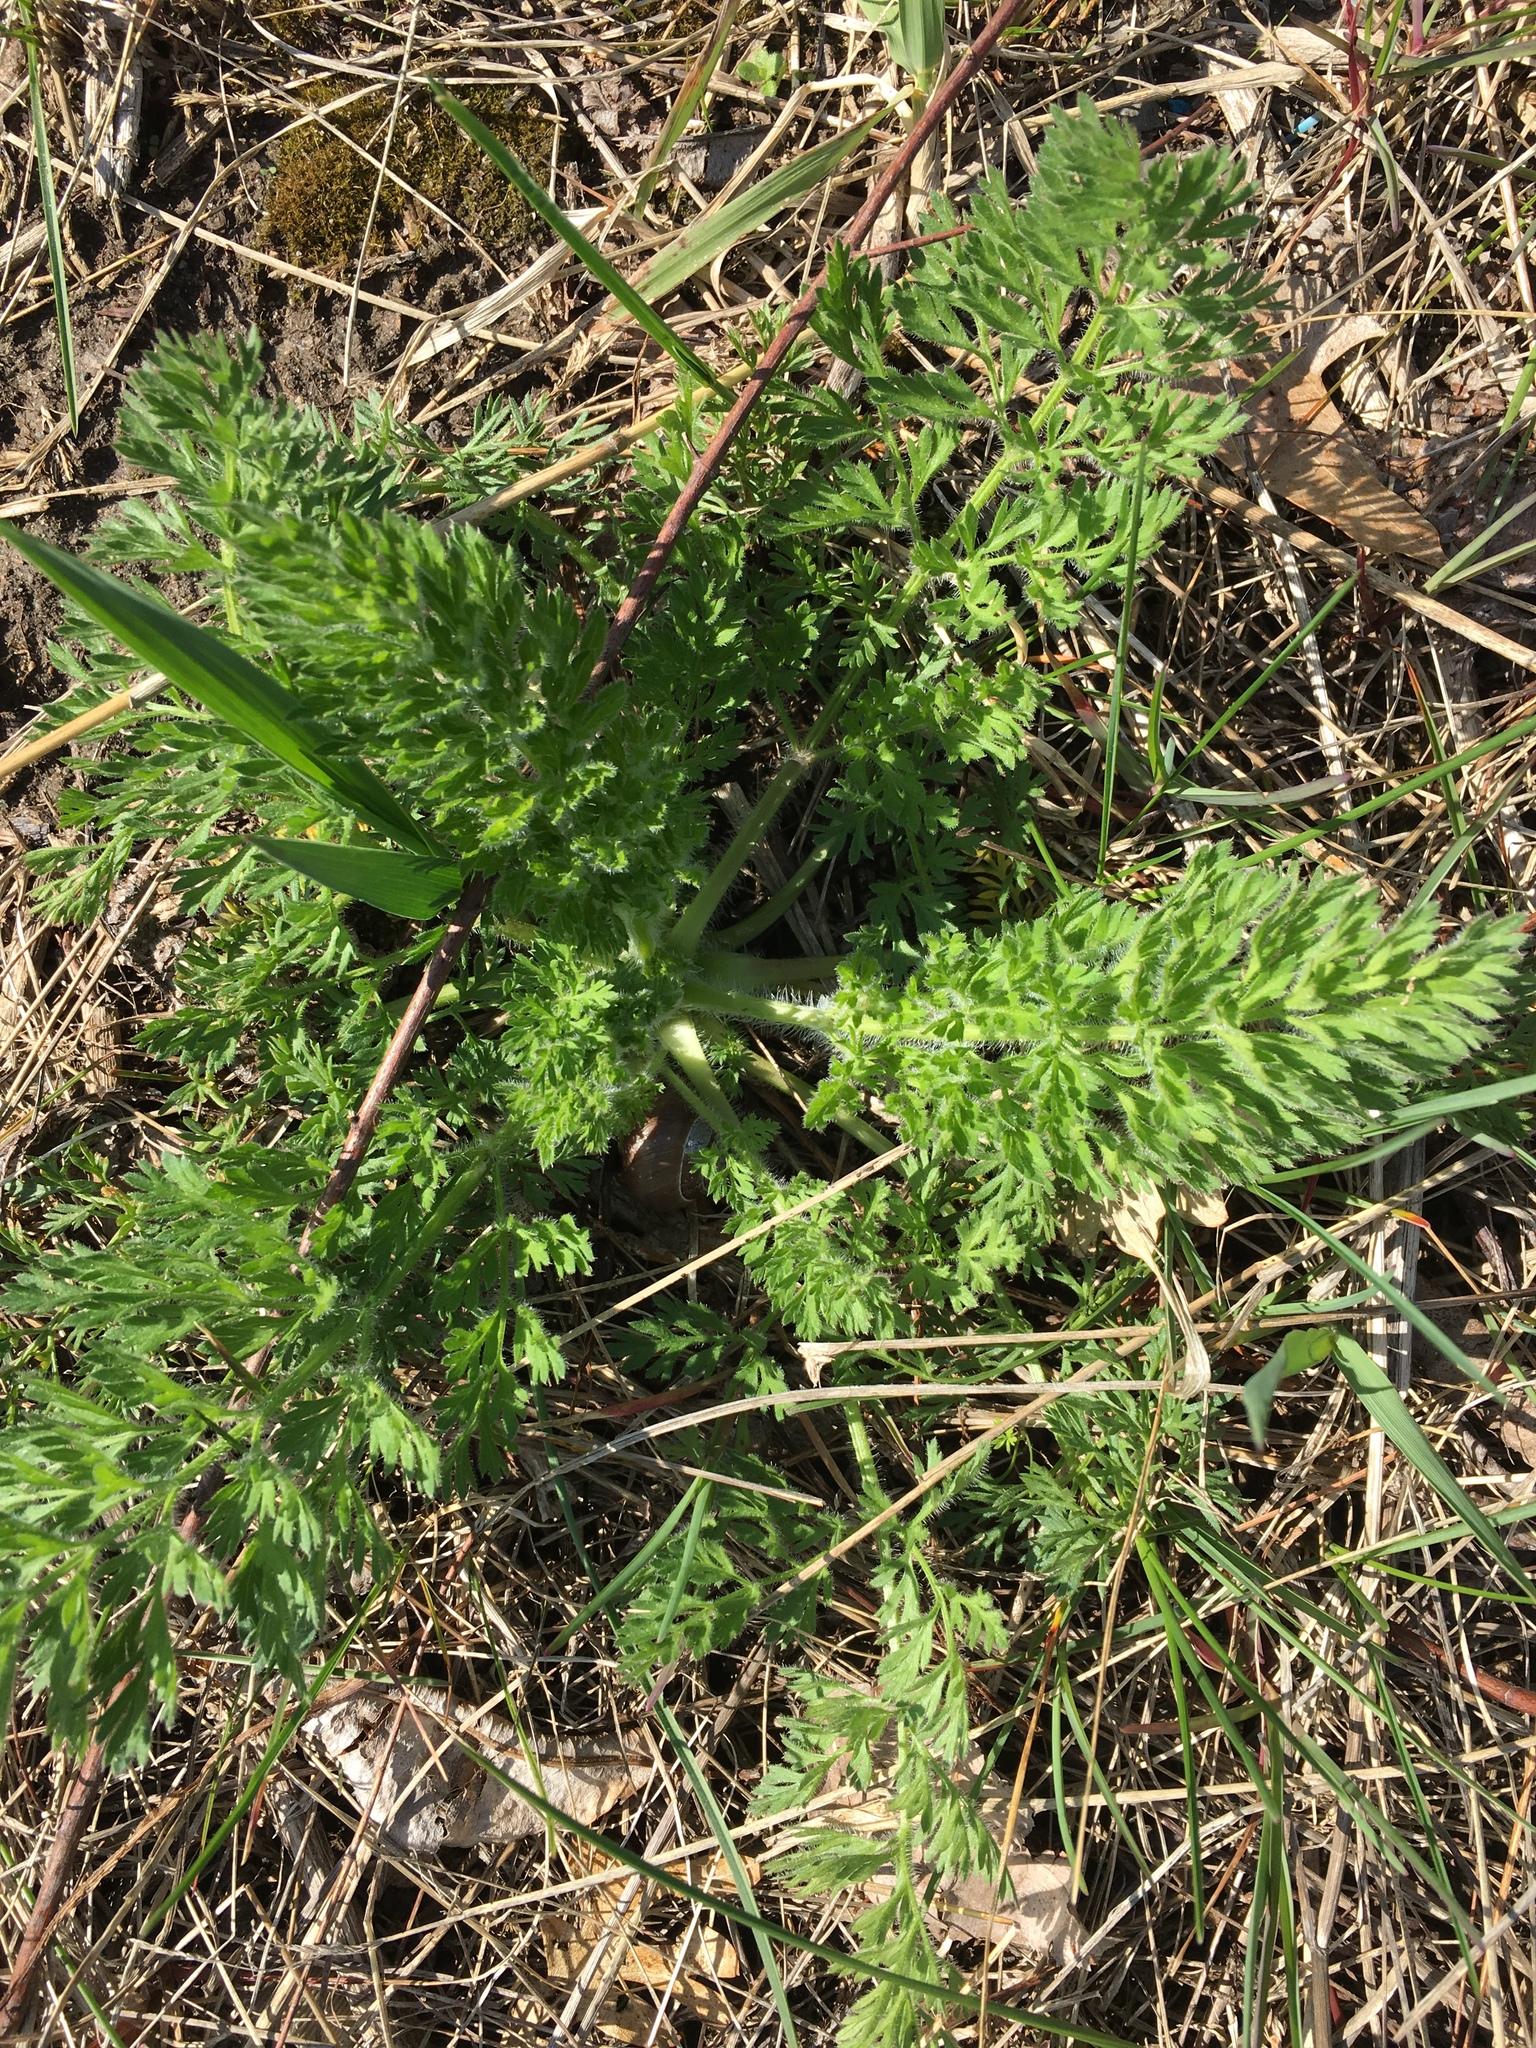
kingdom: Plantae
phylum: Tracheophyta
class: Magnoliopsida
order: Apiales
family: Apiaceae
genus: Daucus
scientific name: Daucus carota
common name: Wild carrot
